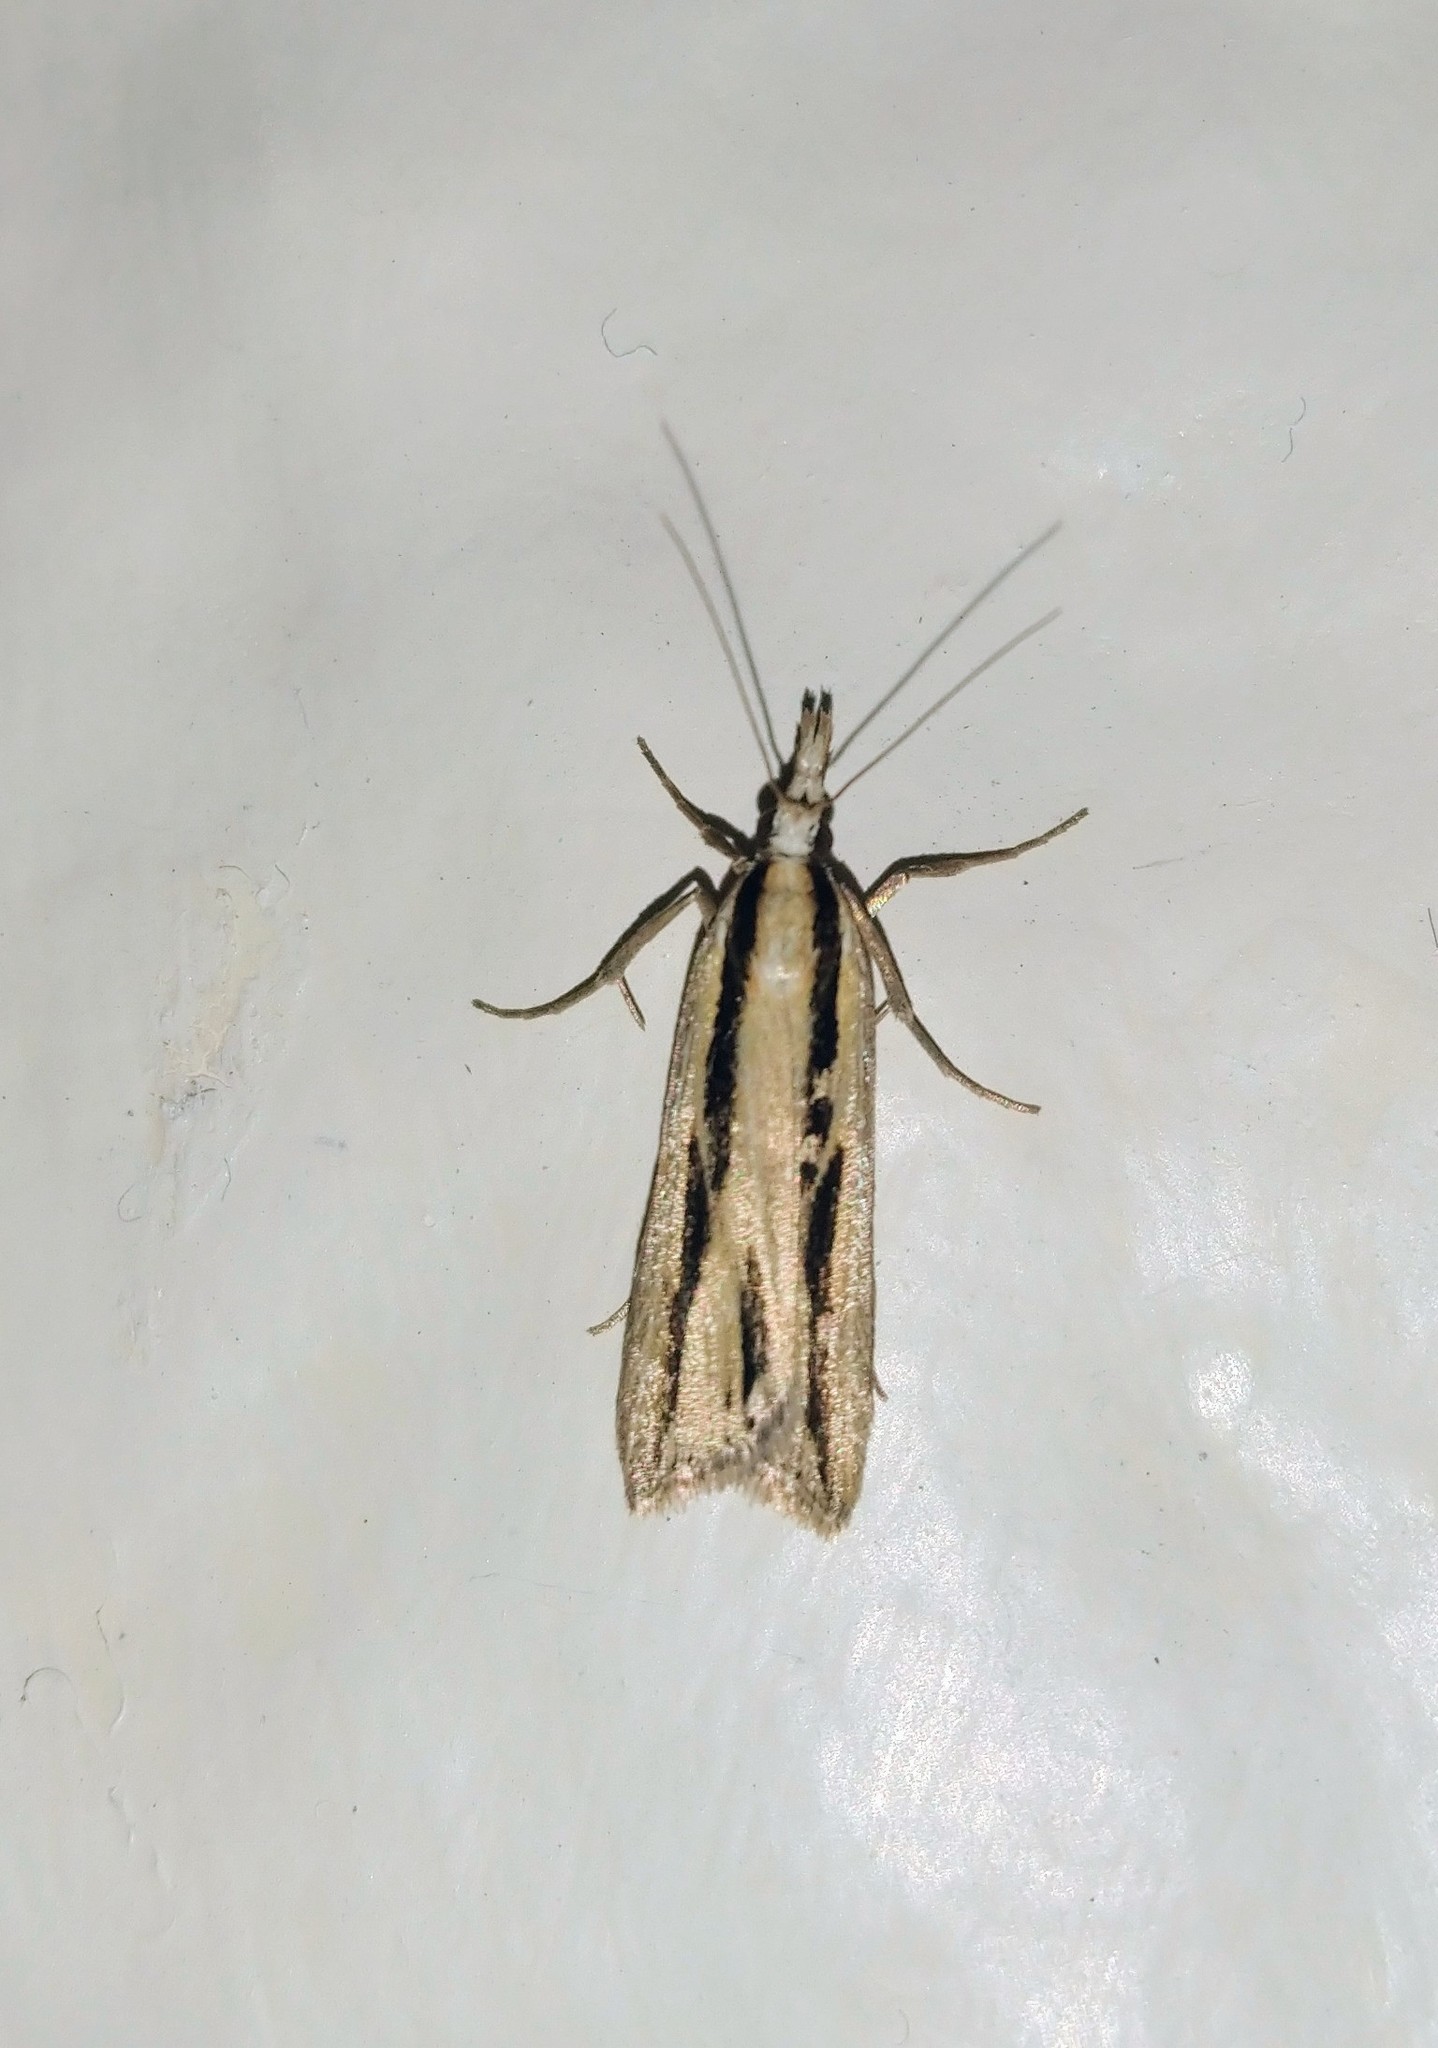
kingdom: Animalia
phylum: Arthropoda
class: Insecta
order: Lepidoptera
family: Crambidae
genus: Eudonia
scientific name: Eudonia trivirgata
